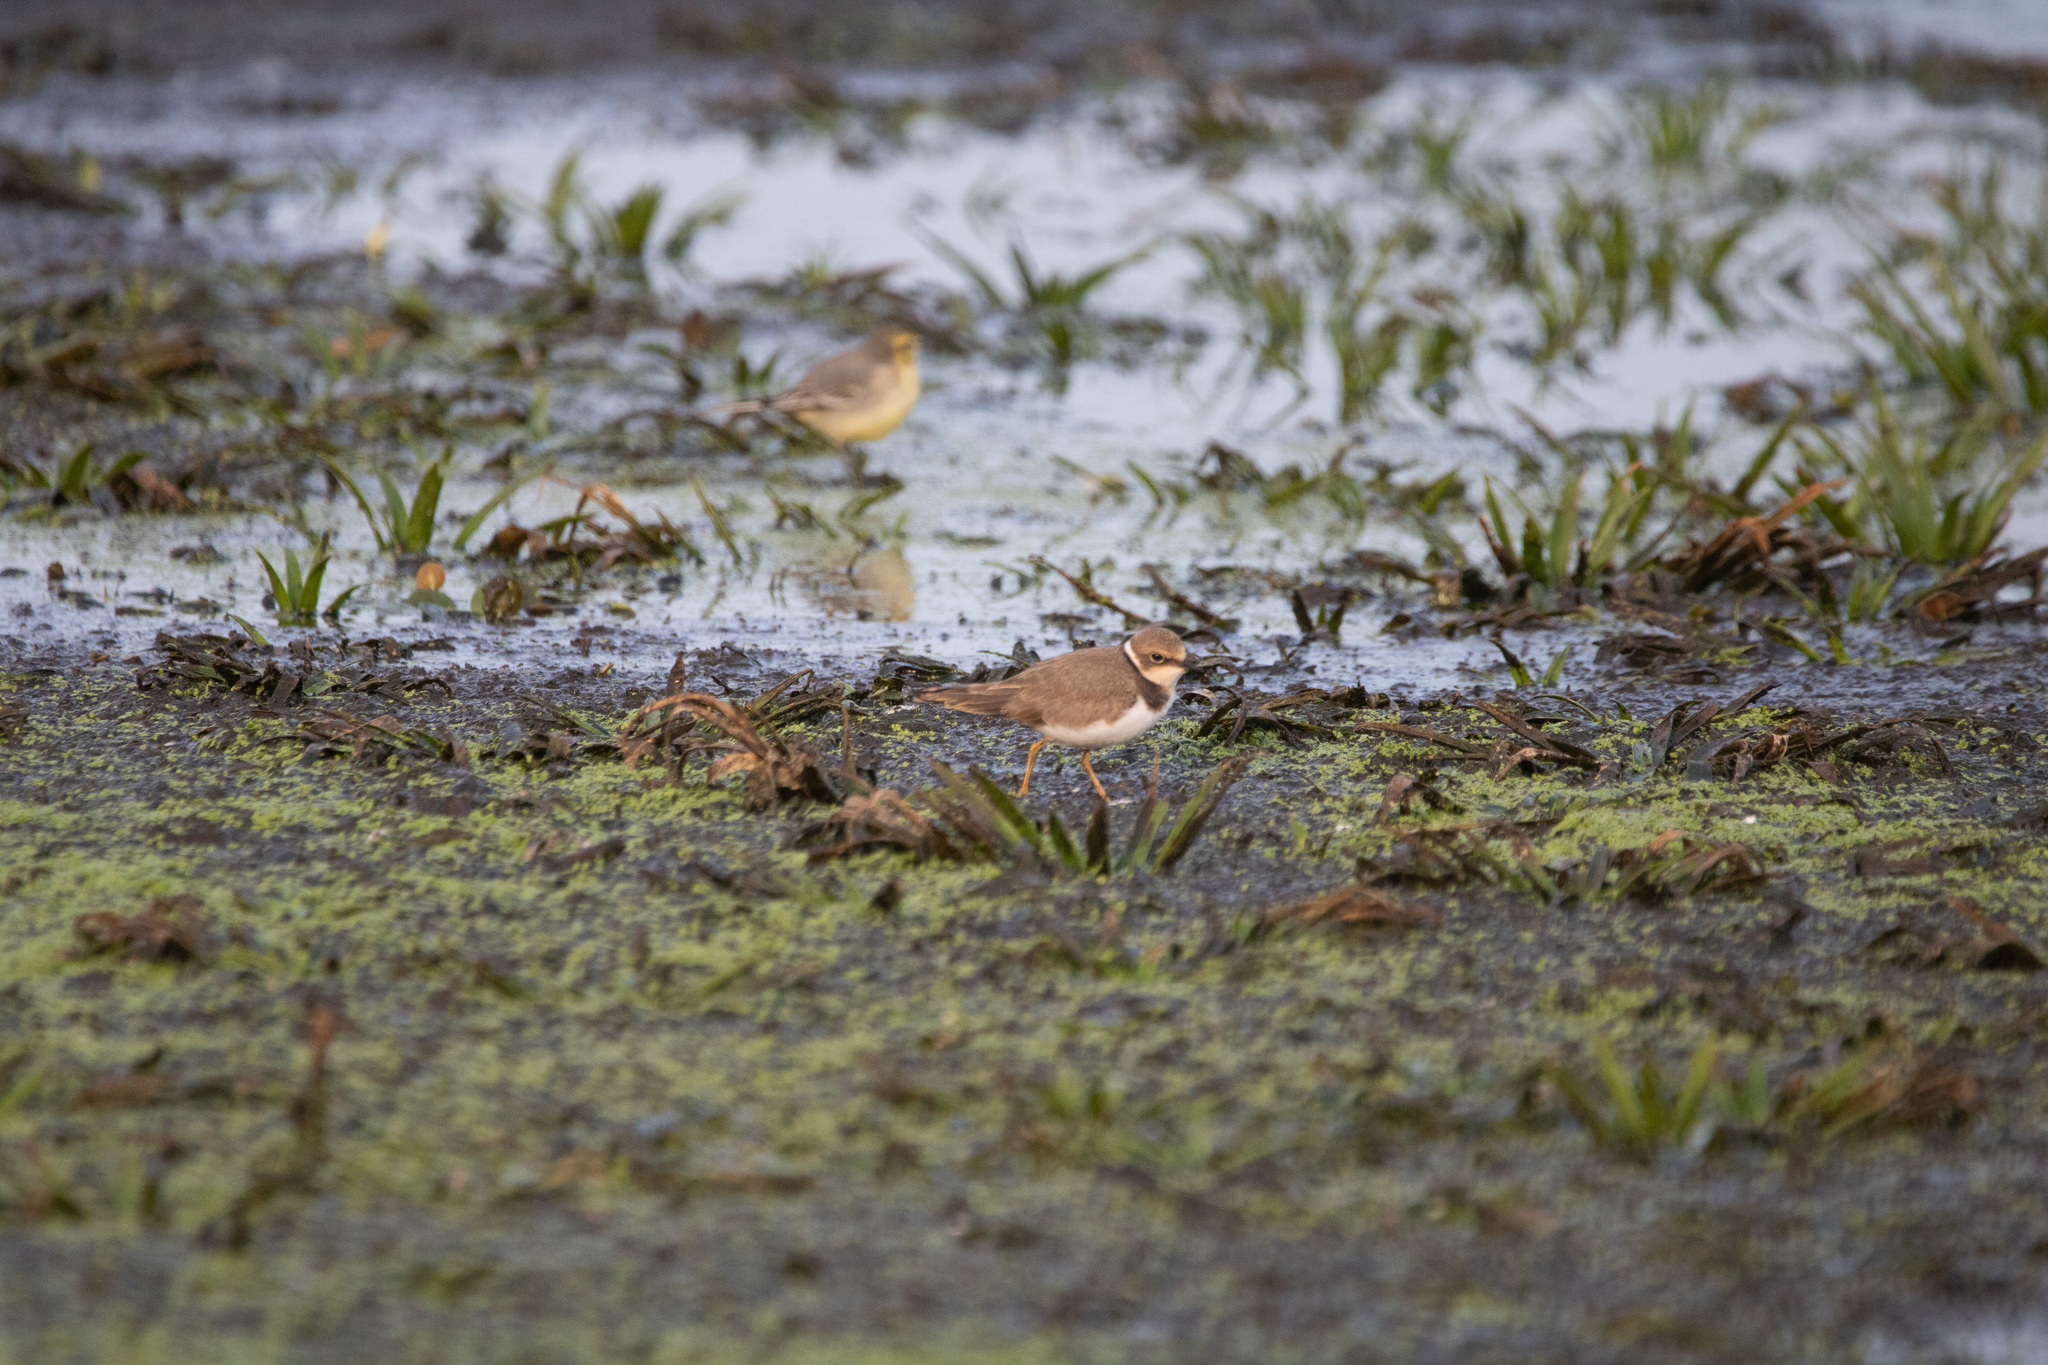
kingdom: Animalia
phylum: Chordata
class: Aves
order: Charadriiformes
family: Charadriidae
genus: Charadrius
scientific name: Charadrius dubius
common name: Little ringed plover
